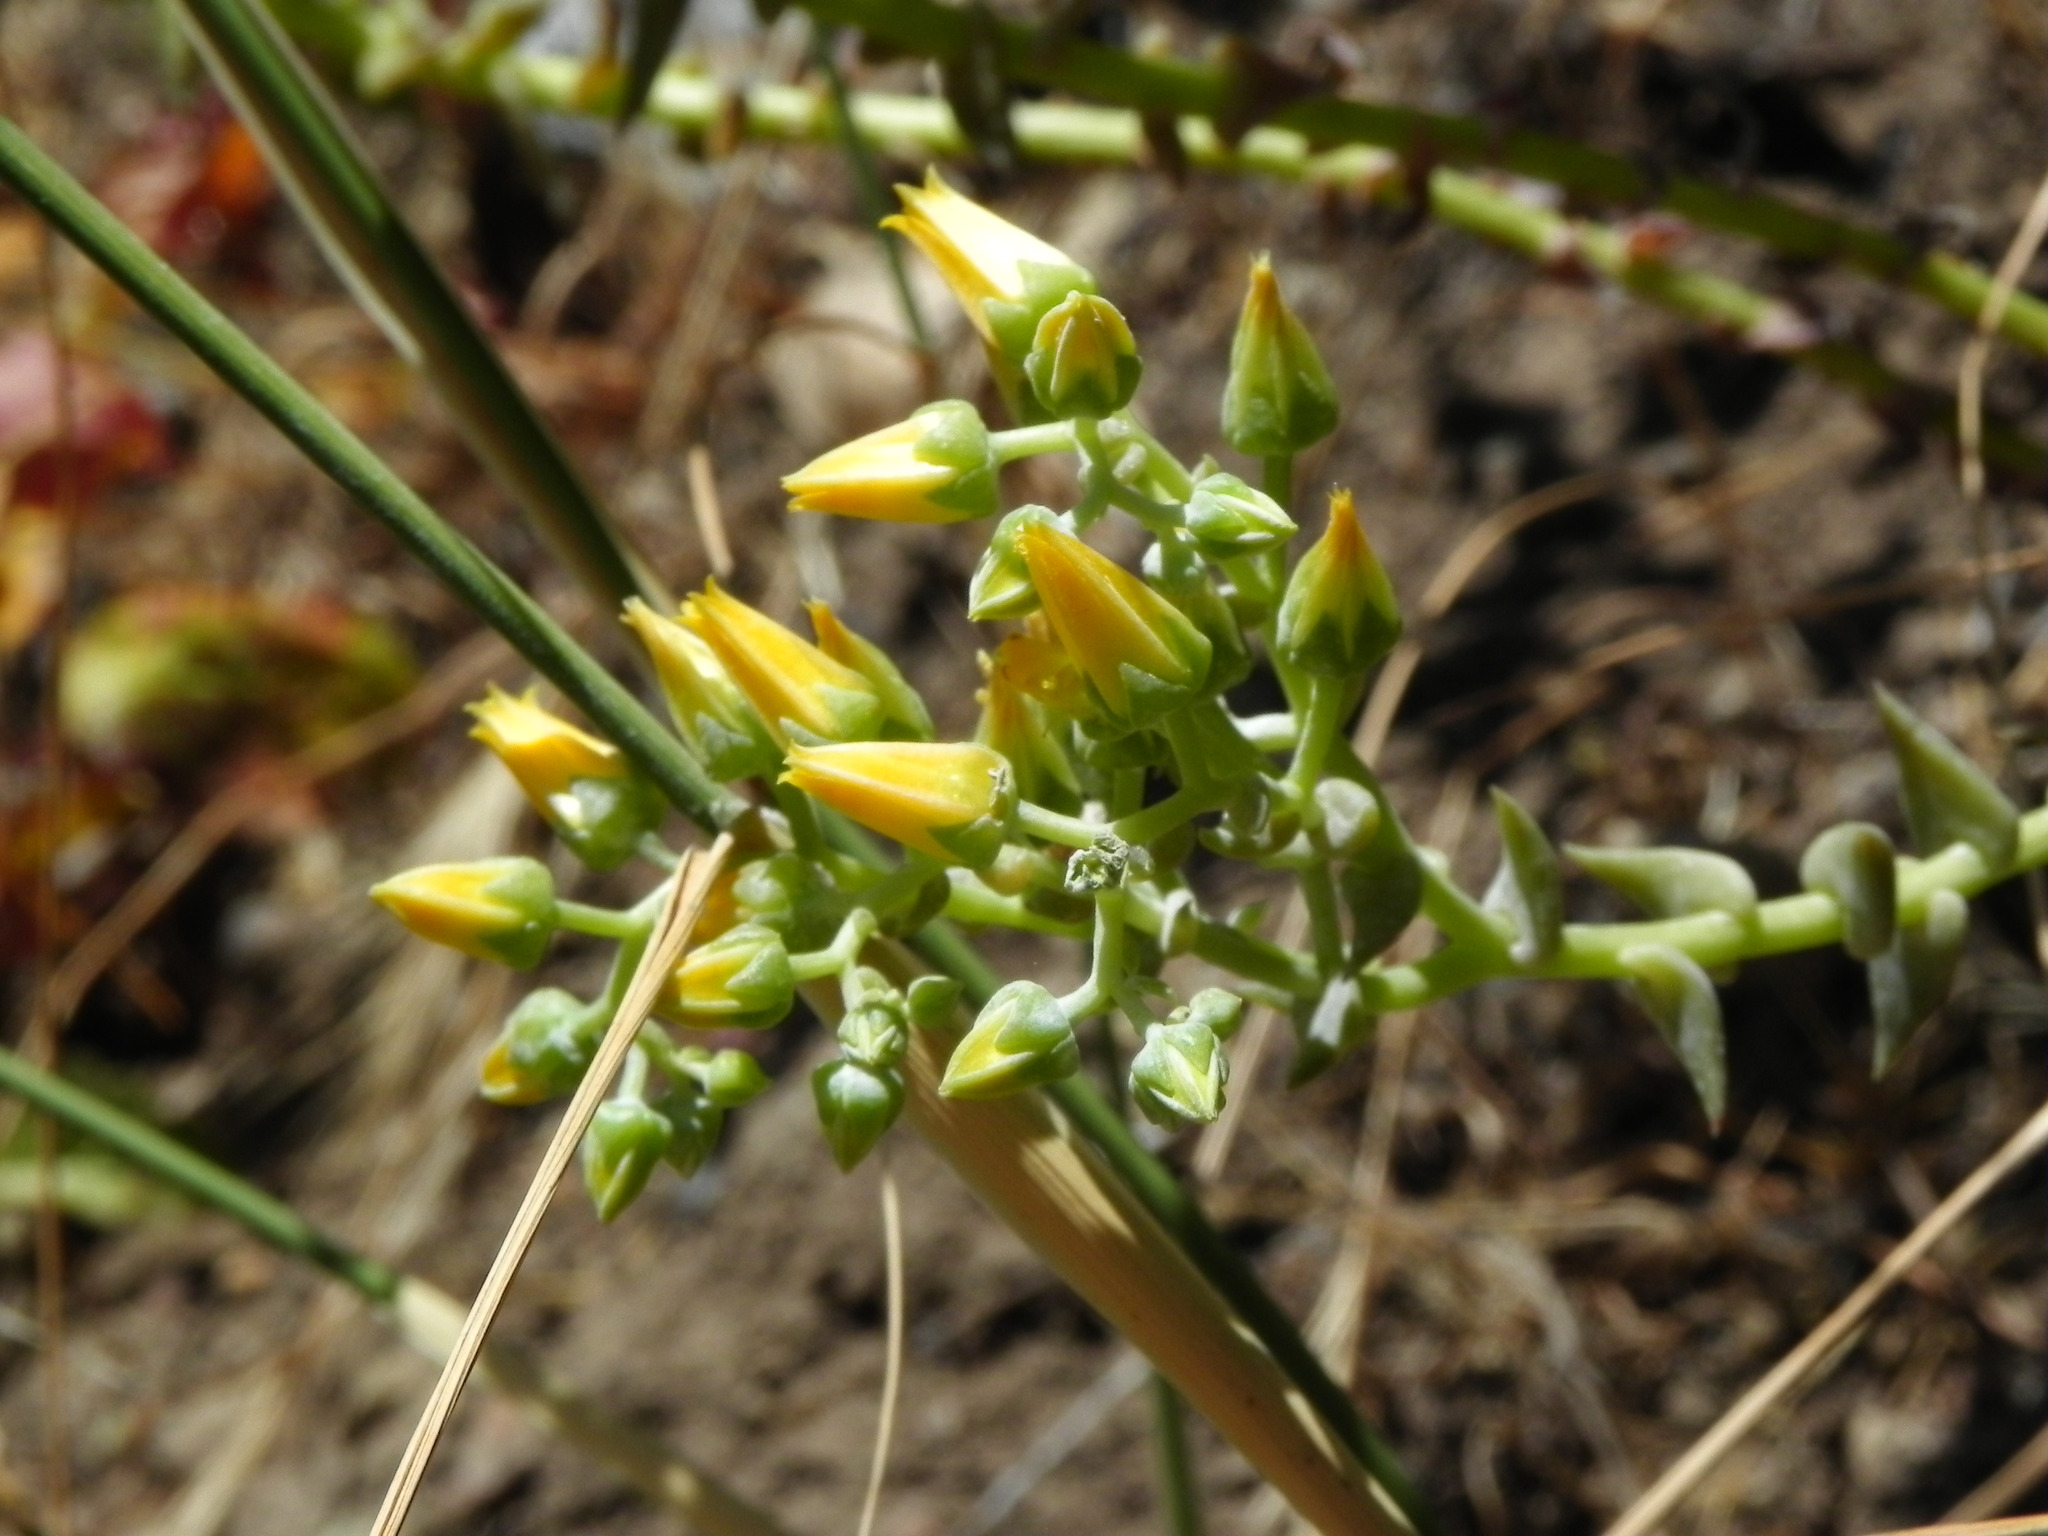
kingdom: Plantae
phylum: Tracheophyta
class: Magnoliopsida
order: Saxifragales
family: Crassulaceae
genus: Dudleya
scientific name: Dudleya cymosa
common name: Canyon dudleya
